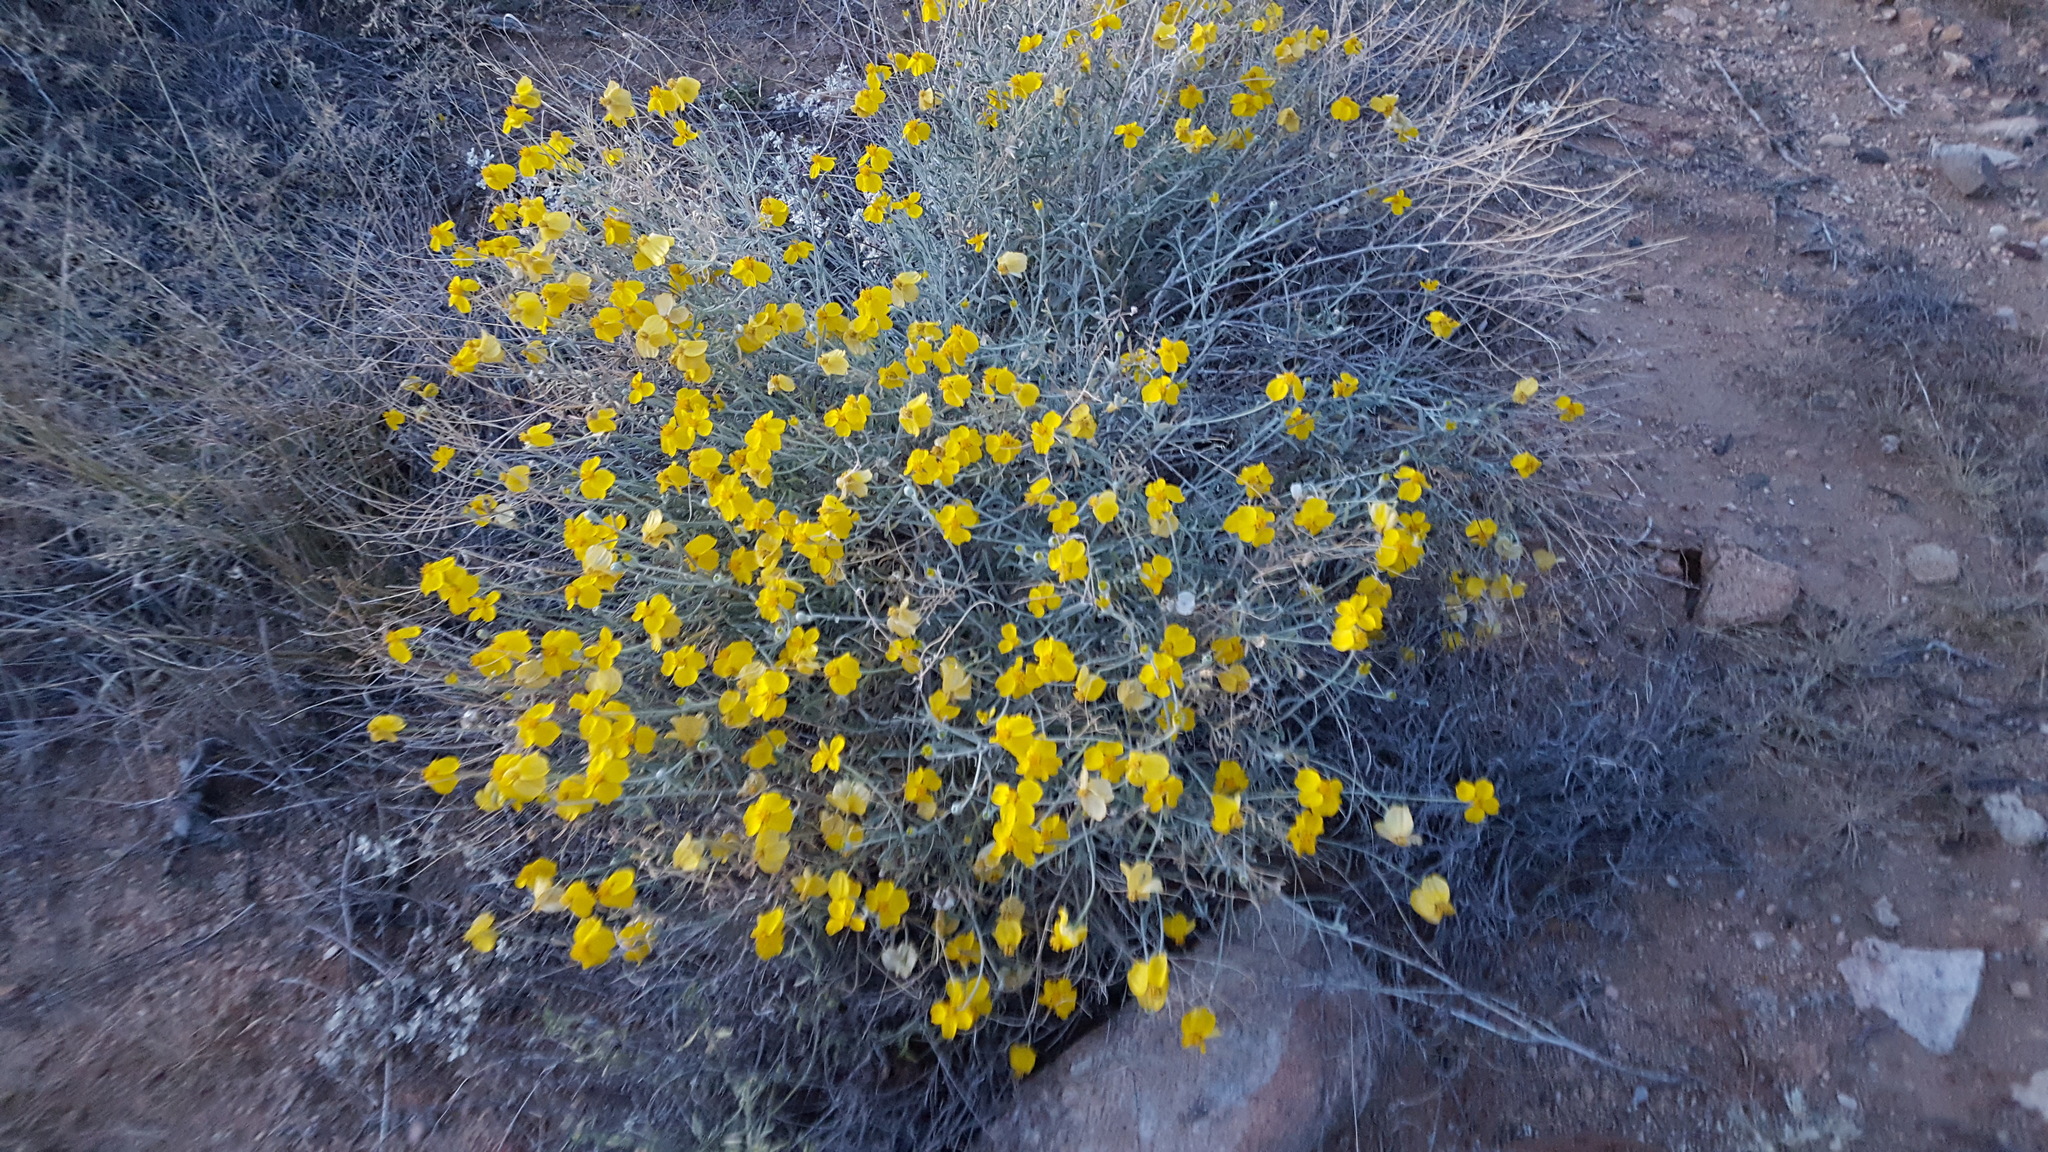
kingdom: Plantae
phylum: Tracheophyta
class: Magnoliopsida
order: Asterales
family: Asteraceae
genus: Psilostrophe
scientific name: Psilostrophe cooperi
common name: White-stem paper-flower
